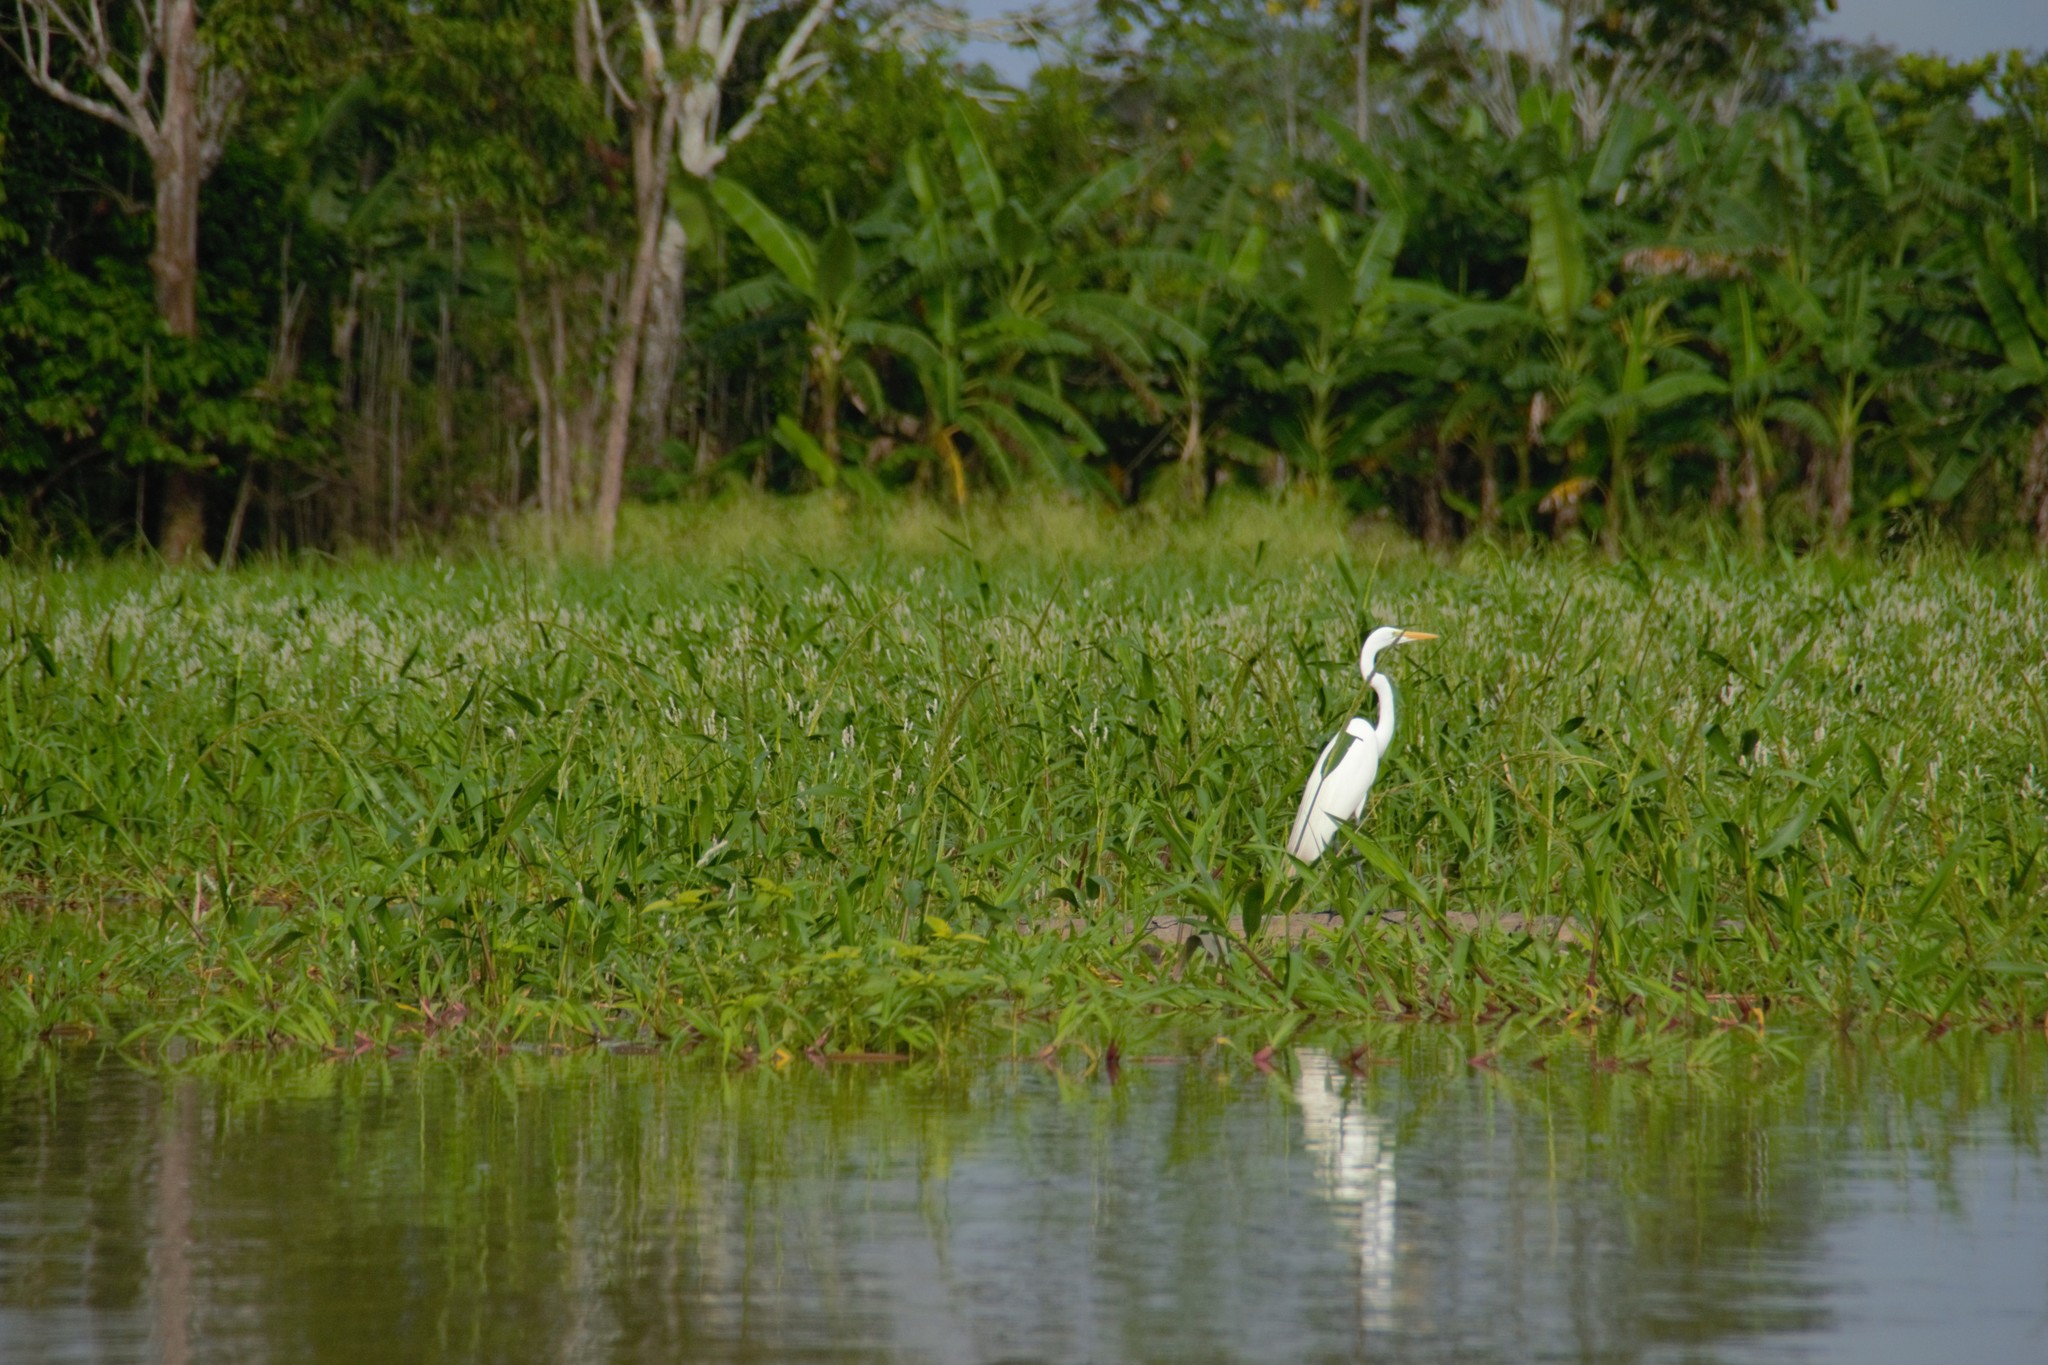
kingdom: Animalia
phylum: Chordata
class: Aves
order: Pelecaniformes
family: Ardeidae
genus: Ardea
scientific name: Ardea alba
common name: Great egret
